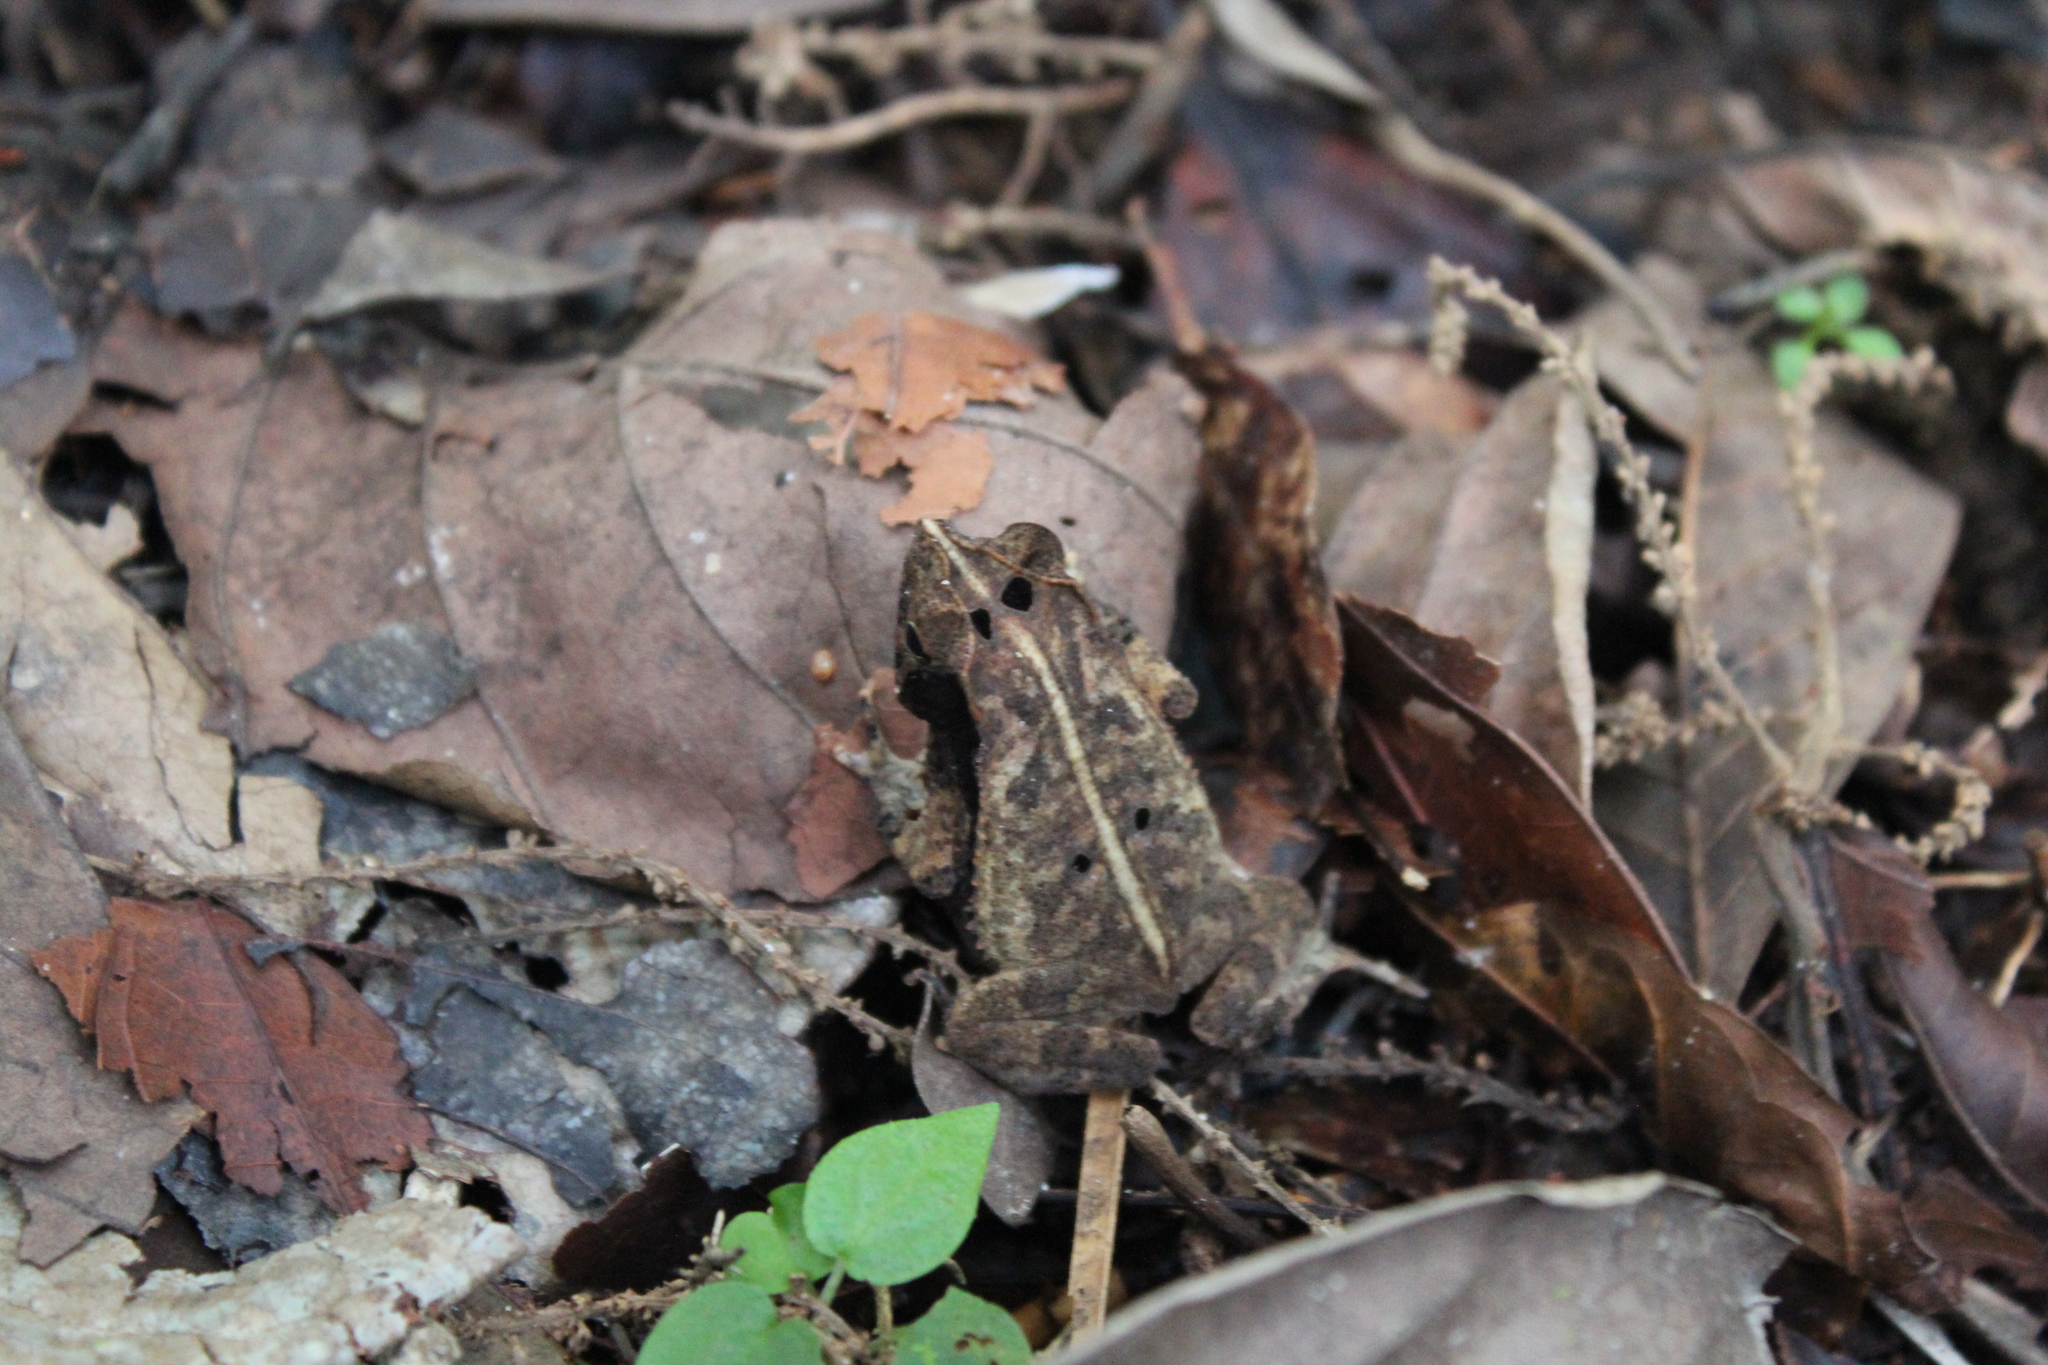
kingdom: Animalia
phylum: Chordata
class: Amphibia
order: Anura
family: Bufonidae
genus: Rhinella
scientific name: Rhinella margaritifera
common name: Mitred toad
